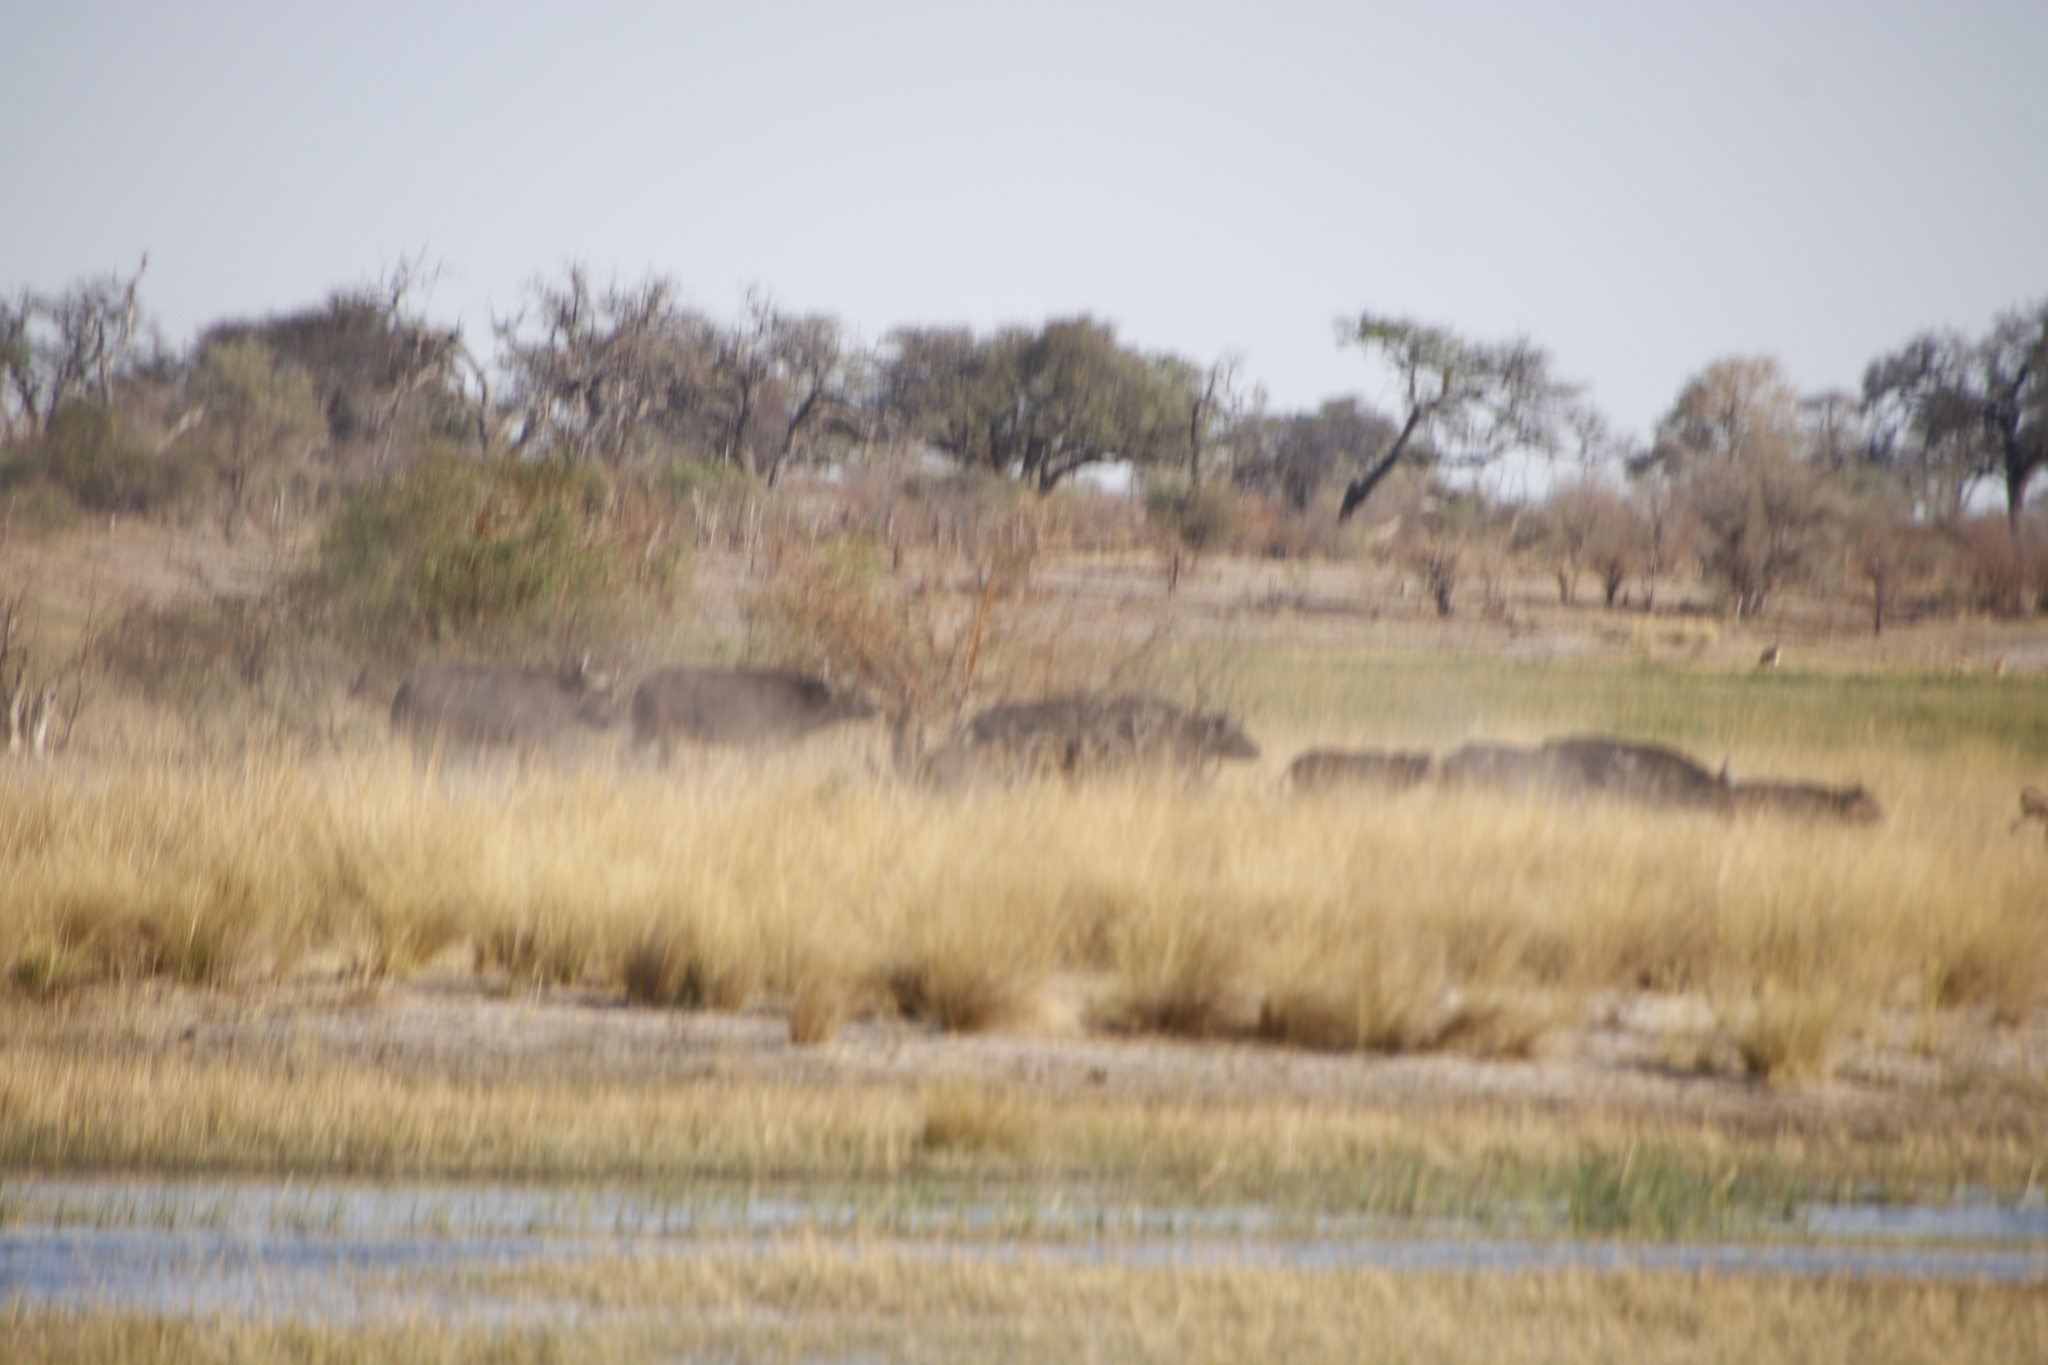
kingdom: Animalia
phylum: Chordata
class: Mammalia
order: Artiodactyla
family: Bovidae
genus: Syncerus
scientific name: Syncerus caffer
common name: African buffalo
